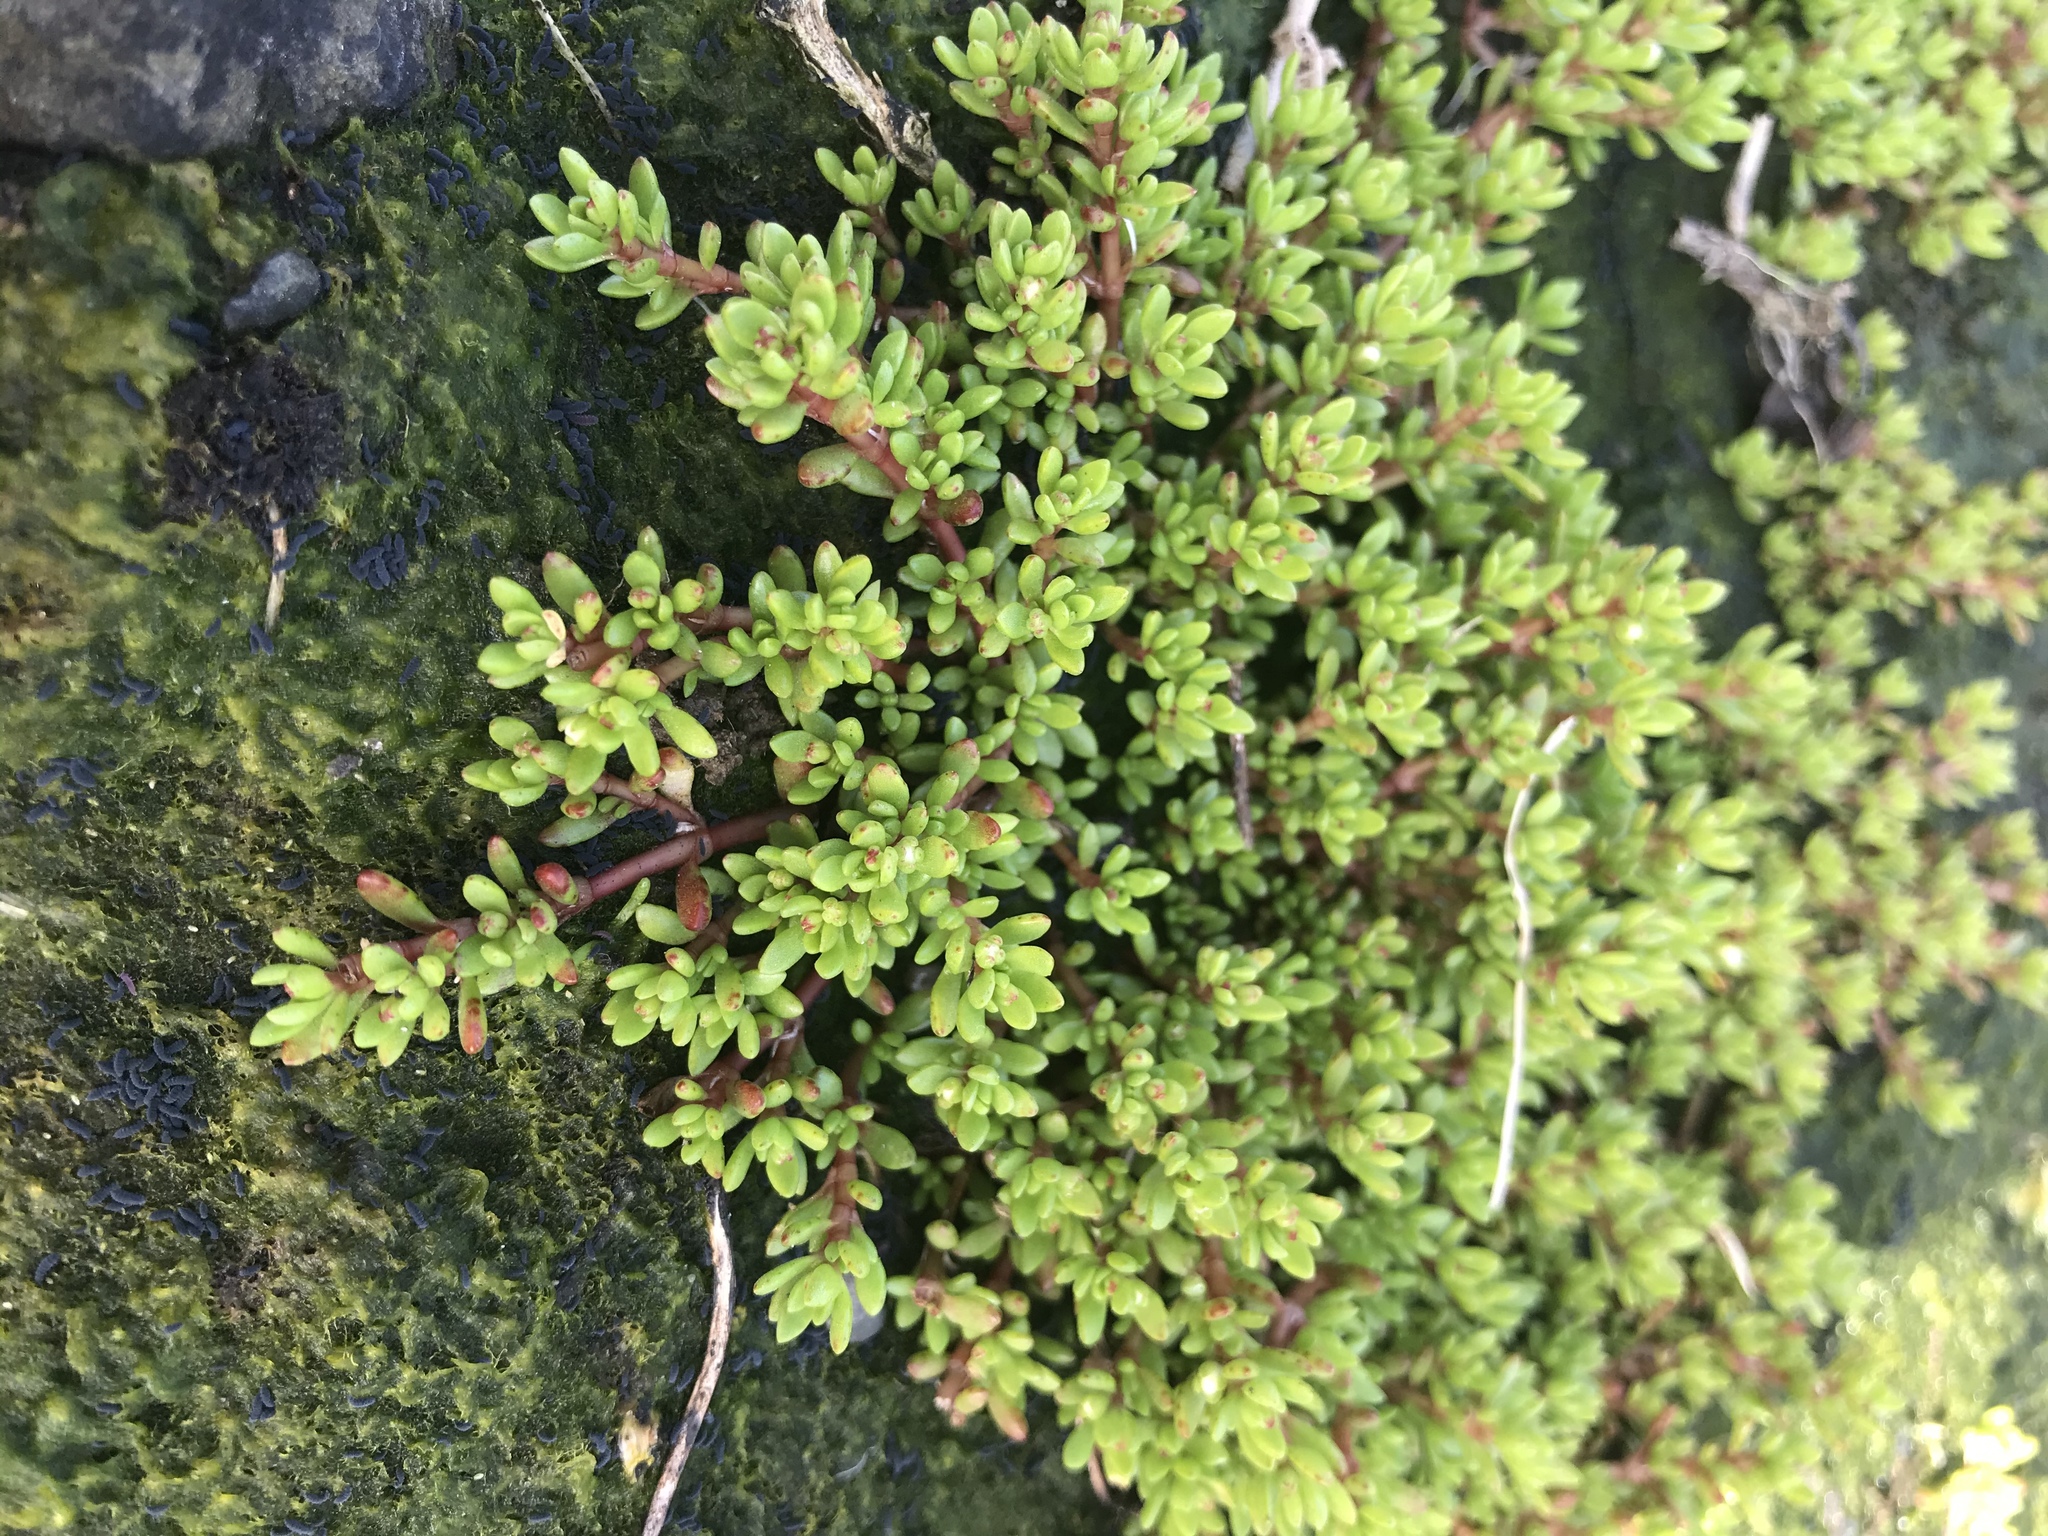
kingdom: Plantae
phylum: Tracheophyta
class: Magnoliopsida
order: Saxifragales
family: Crassulaceae
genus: Crassula
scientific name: Crassula moschata
